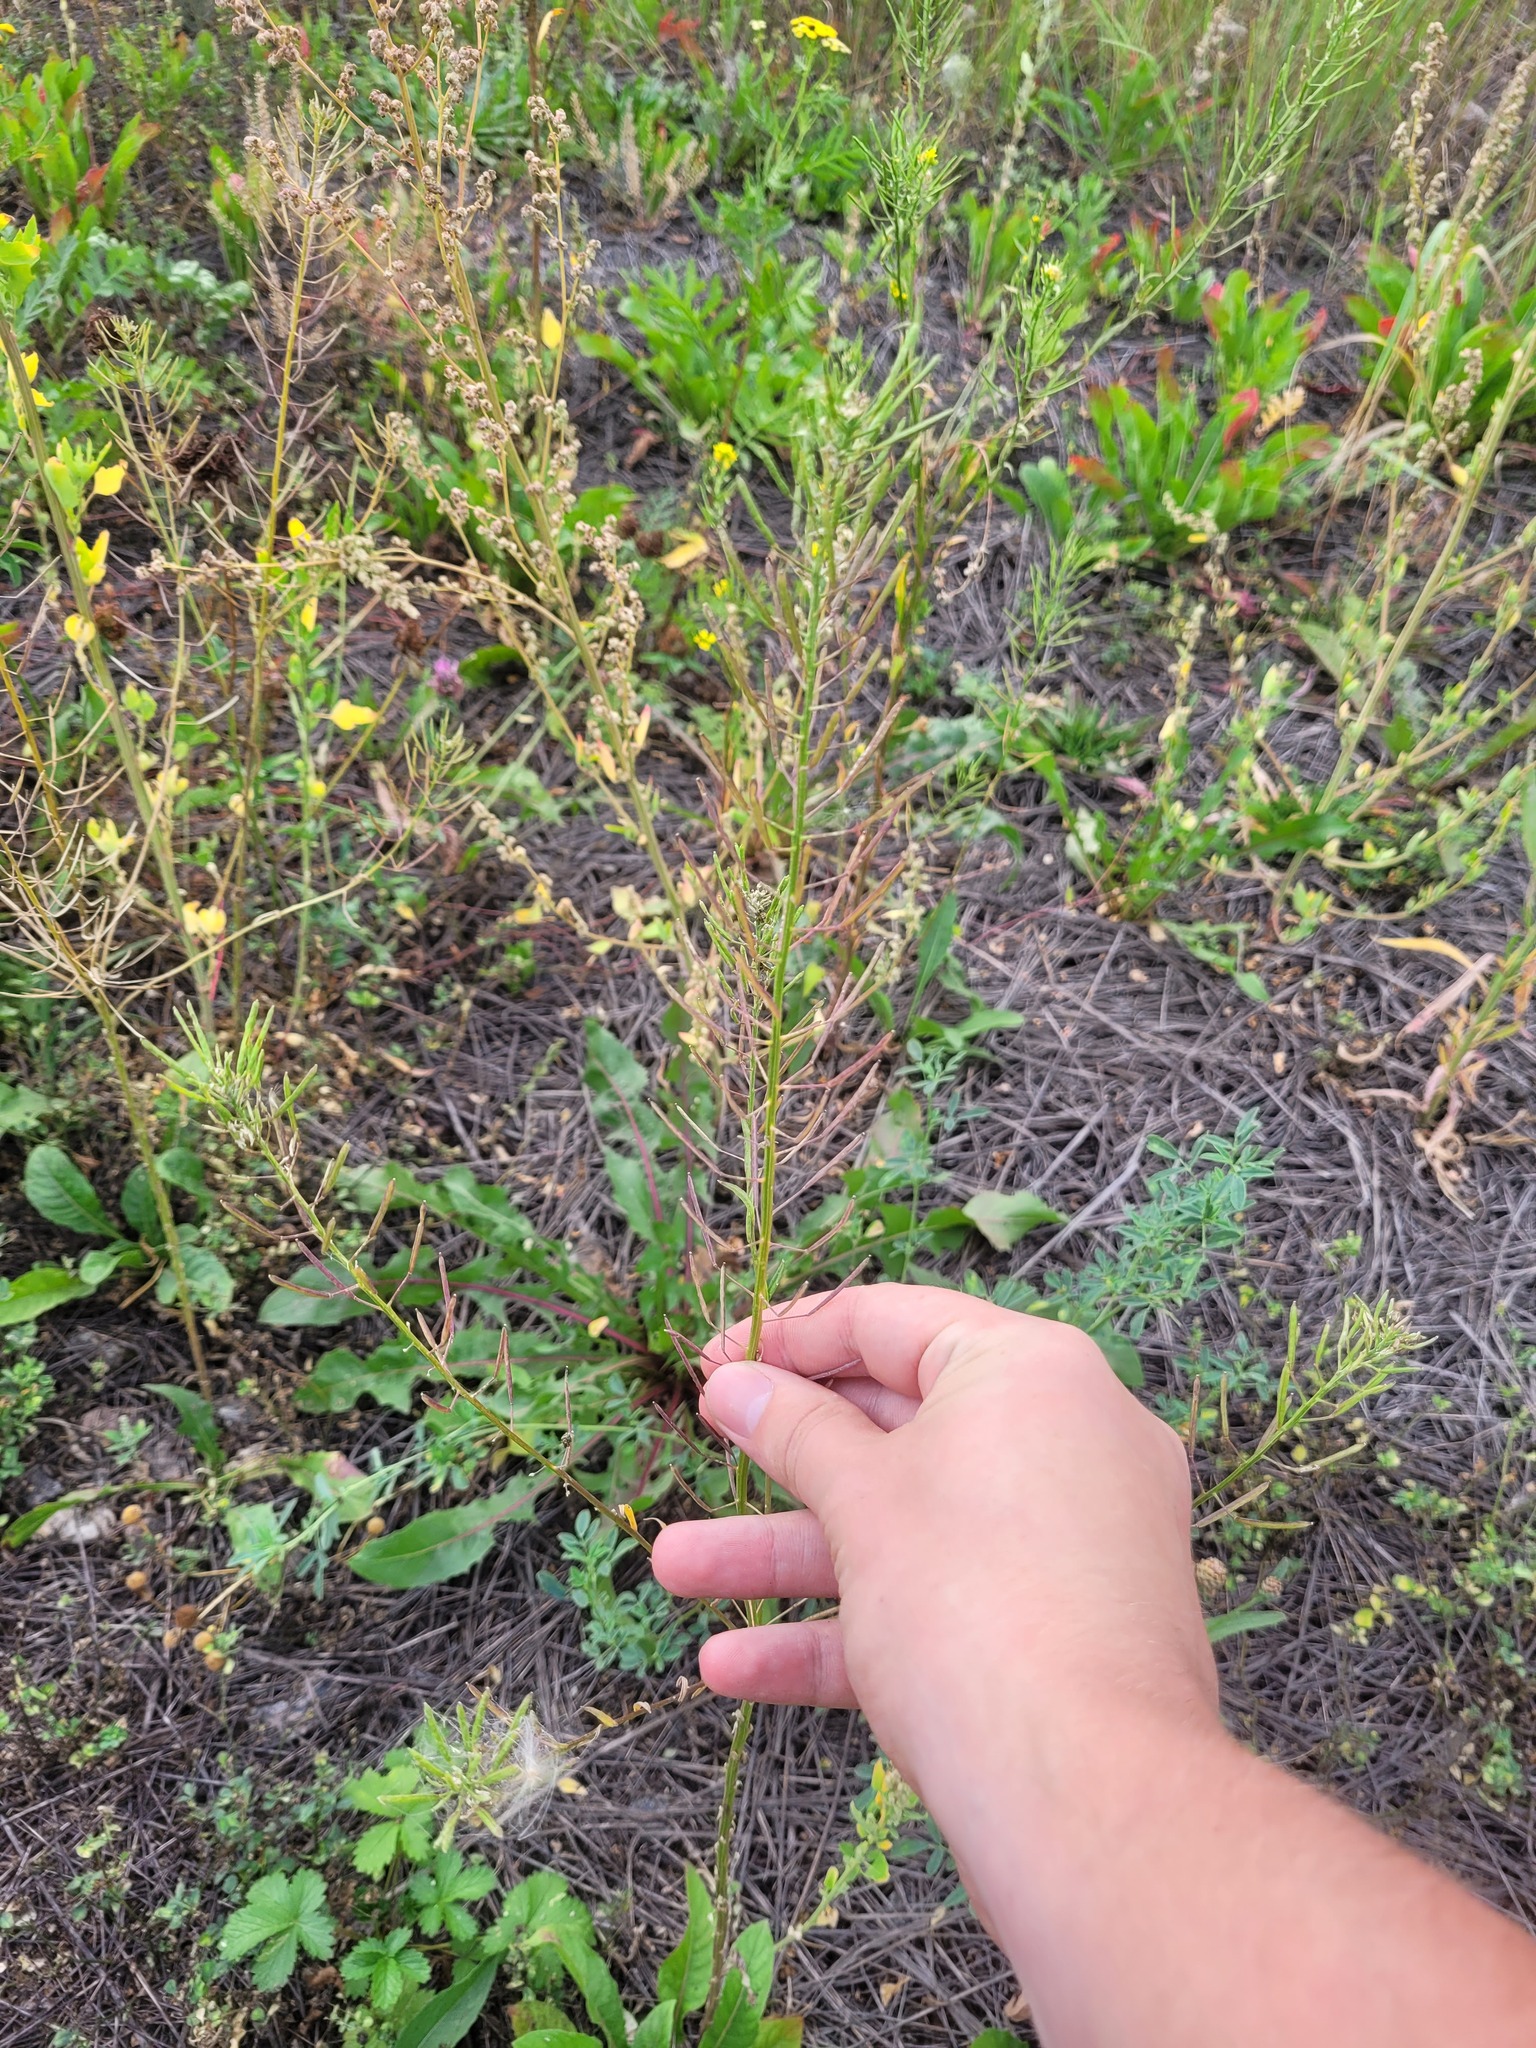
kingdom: Plantae
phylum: Tracheophyta
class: Magnoliopsida
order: Brassicales
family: Brassicaceae
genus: Erysimum
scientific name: Erysimum cheiranthoides
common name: Treacle mustard
